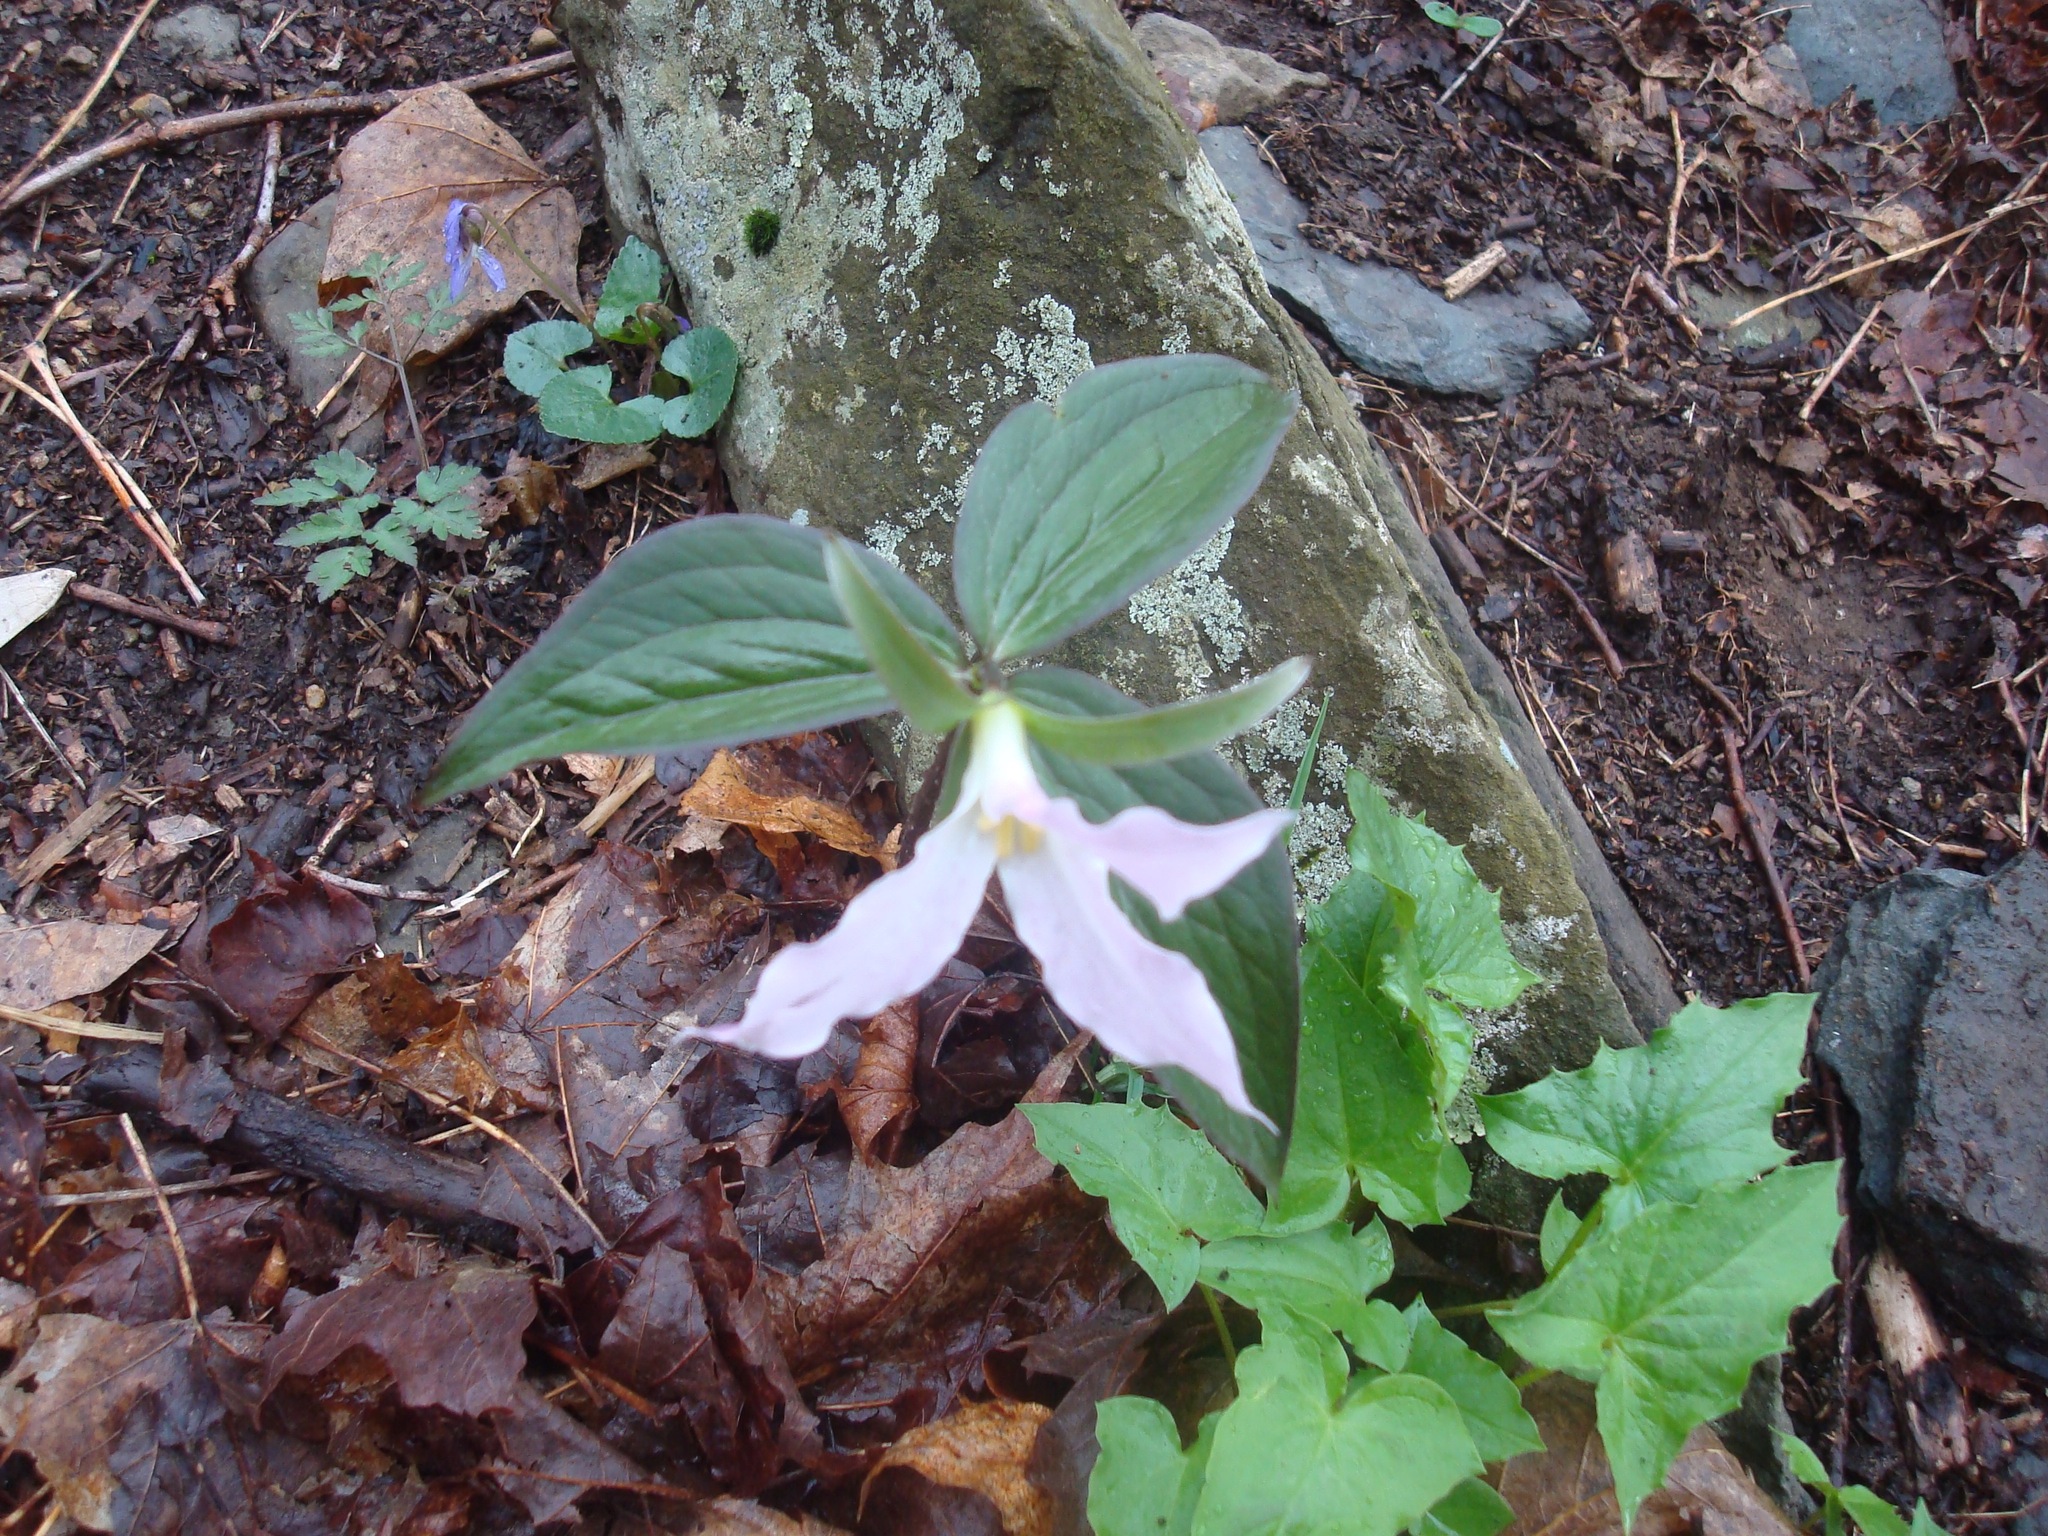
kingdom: Plantae
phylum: Tracheophyta
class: Liliopsida
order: Liliales
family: Melanthiaceae
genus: Trillium
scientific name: Trillium grandiflorum
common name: Great white trillium
